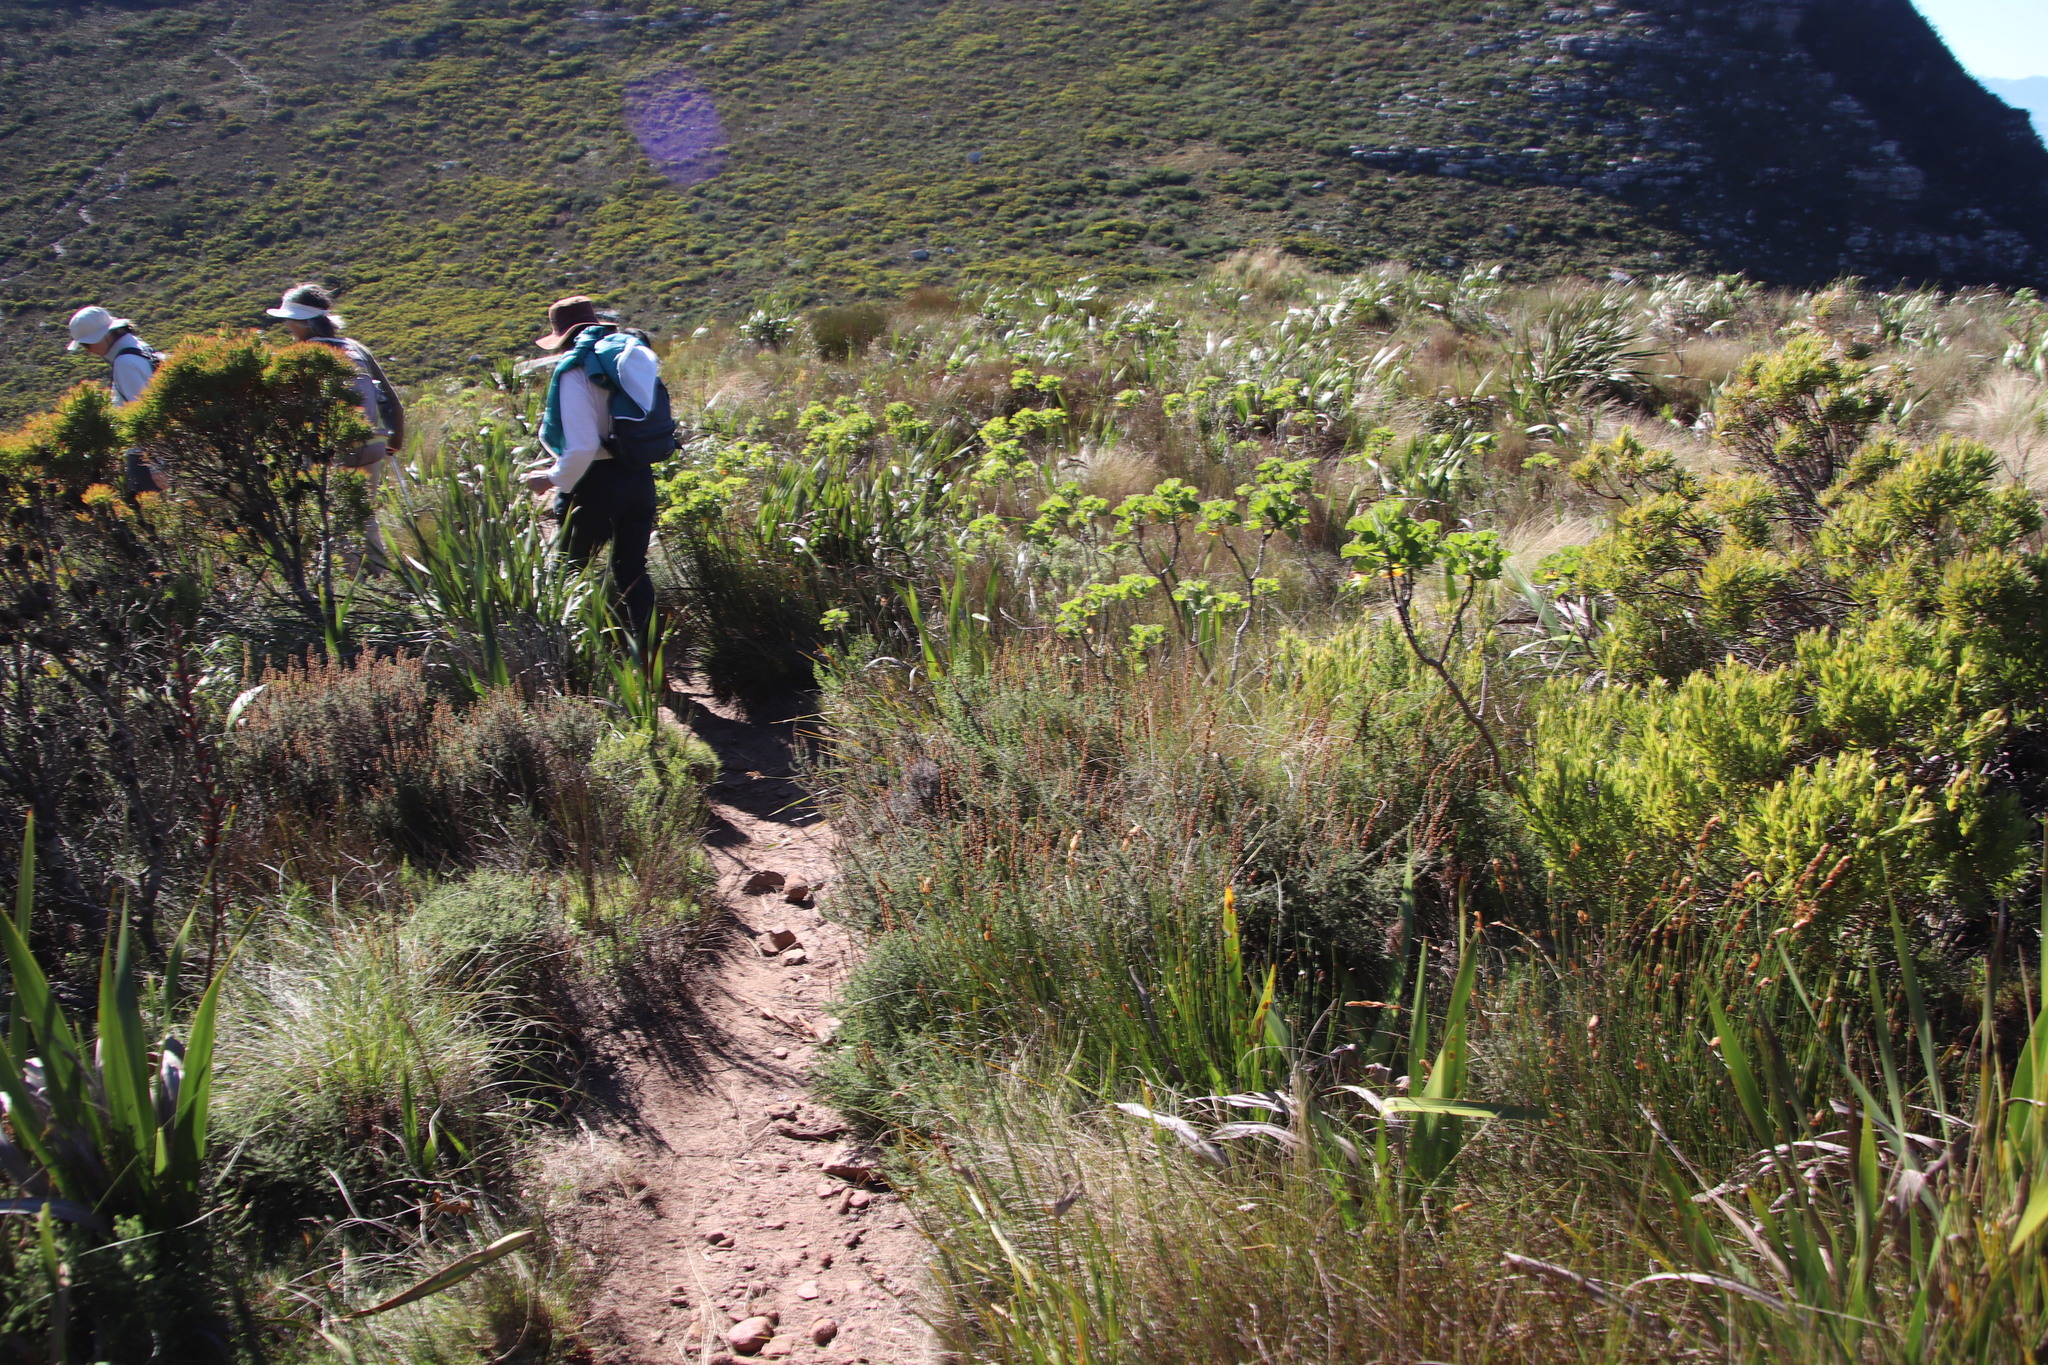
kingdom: Plantae
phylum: Tracheophyta
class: Magnoliopsida
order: Asterales
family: Asteraceae
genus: Seriphium
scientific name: Seriphium cinereum
